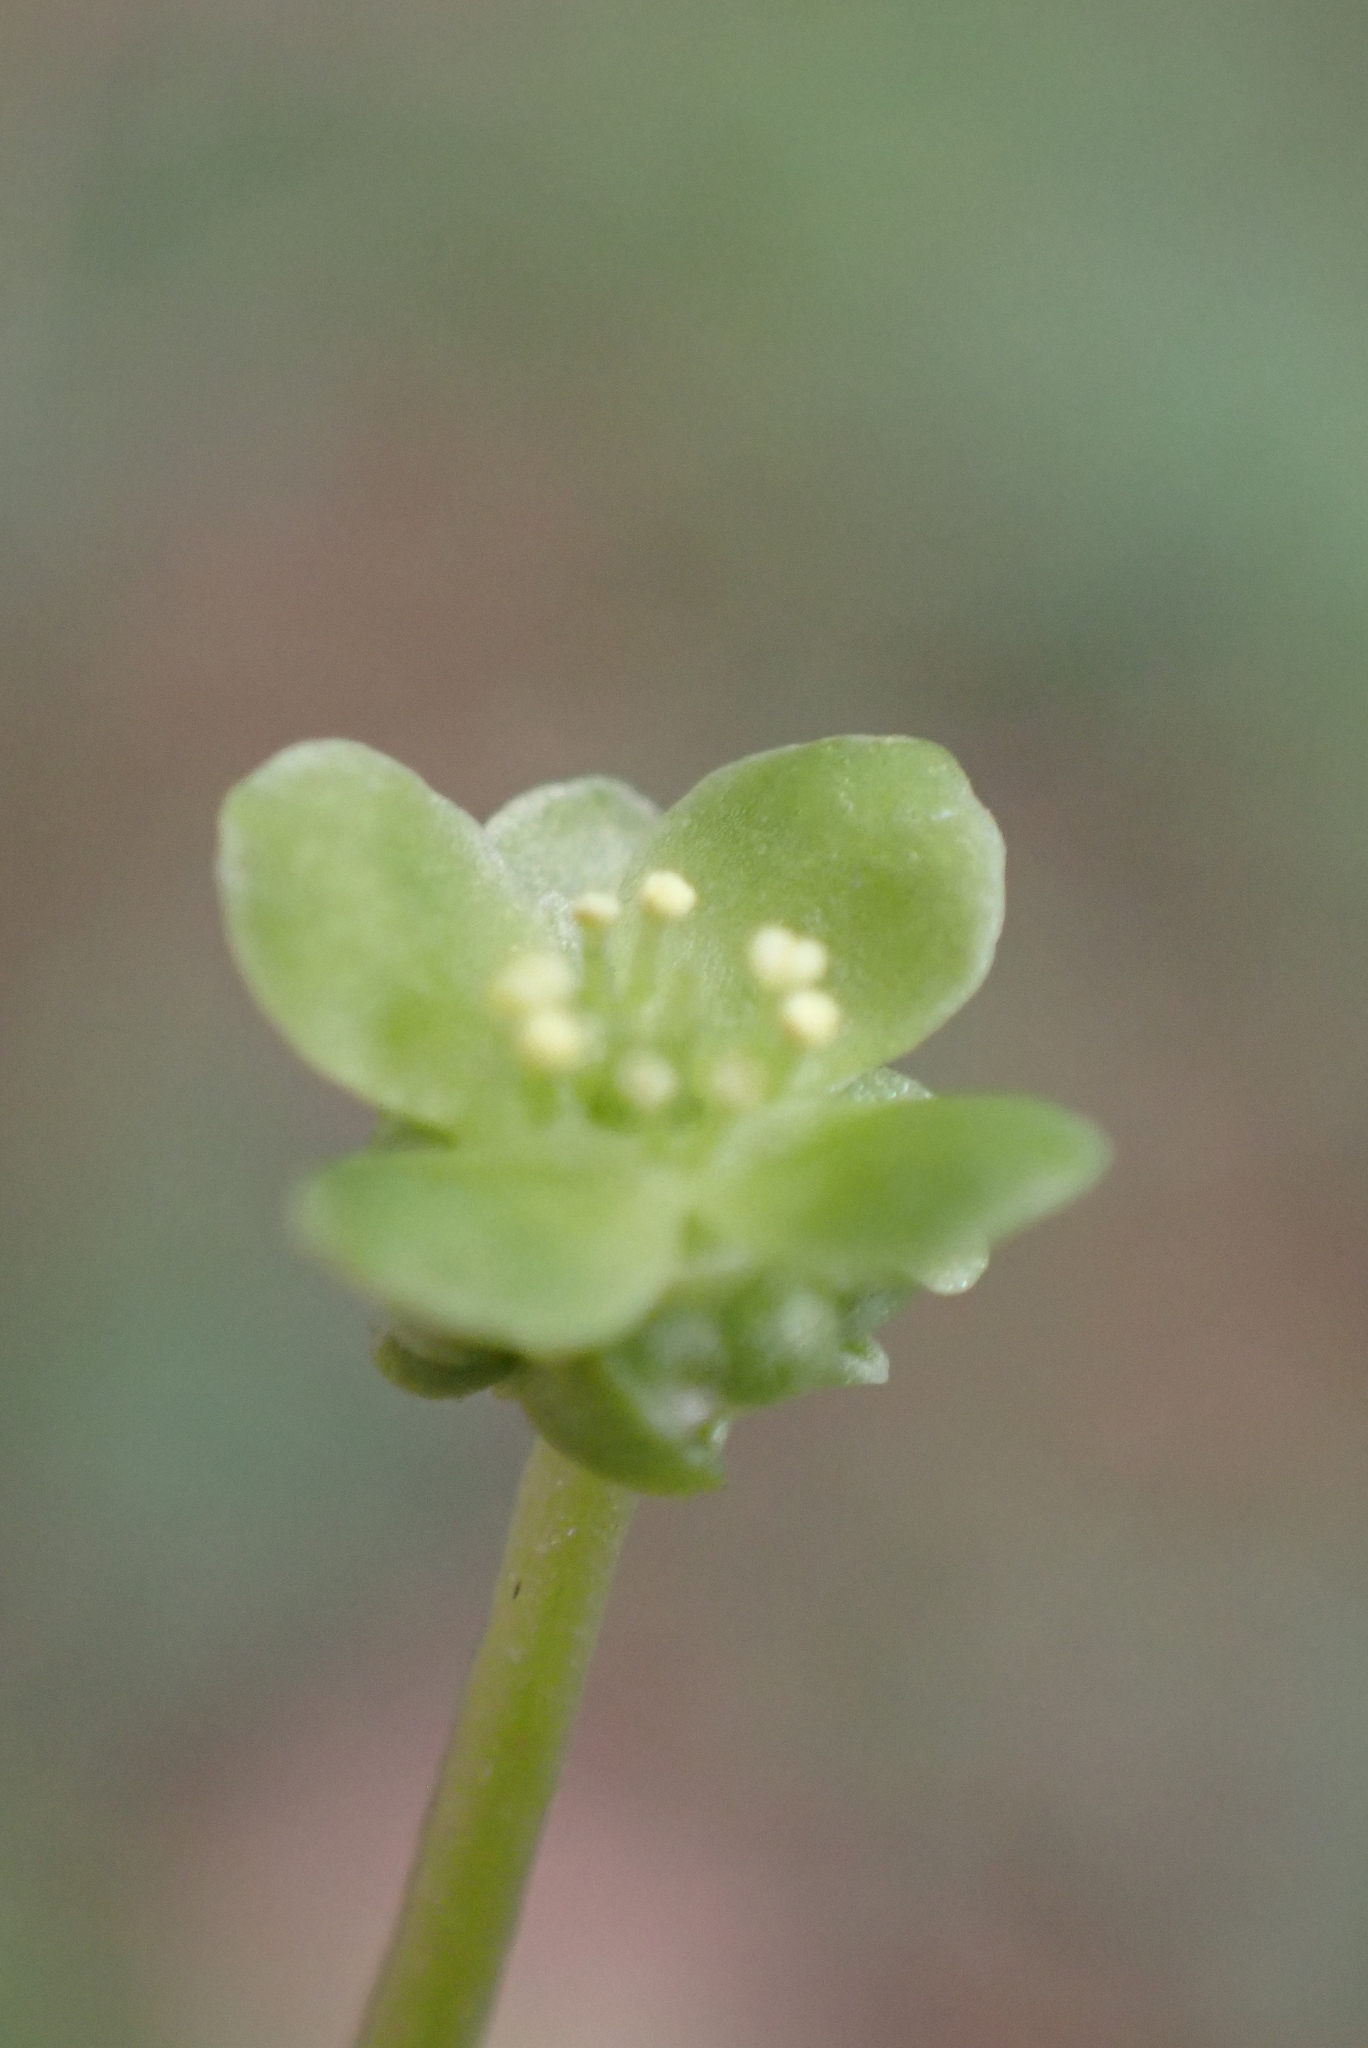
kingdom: Plantae
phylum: Tracheophyta
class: Magnoliopsida
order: Dipsacales
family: Viburnaceae
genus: Adoxa
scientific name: Adoxa moschatellina
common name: Moschatel
